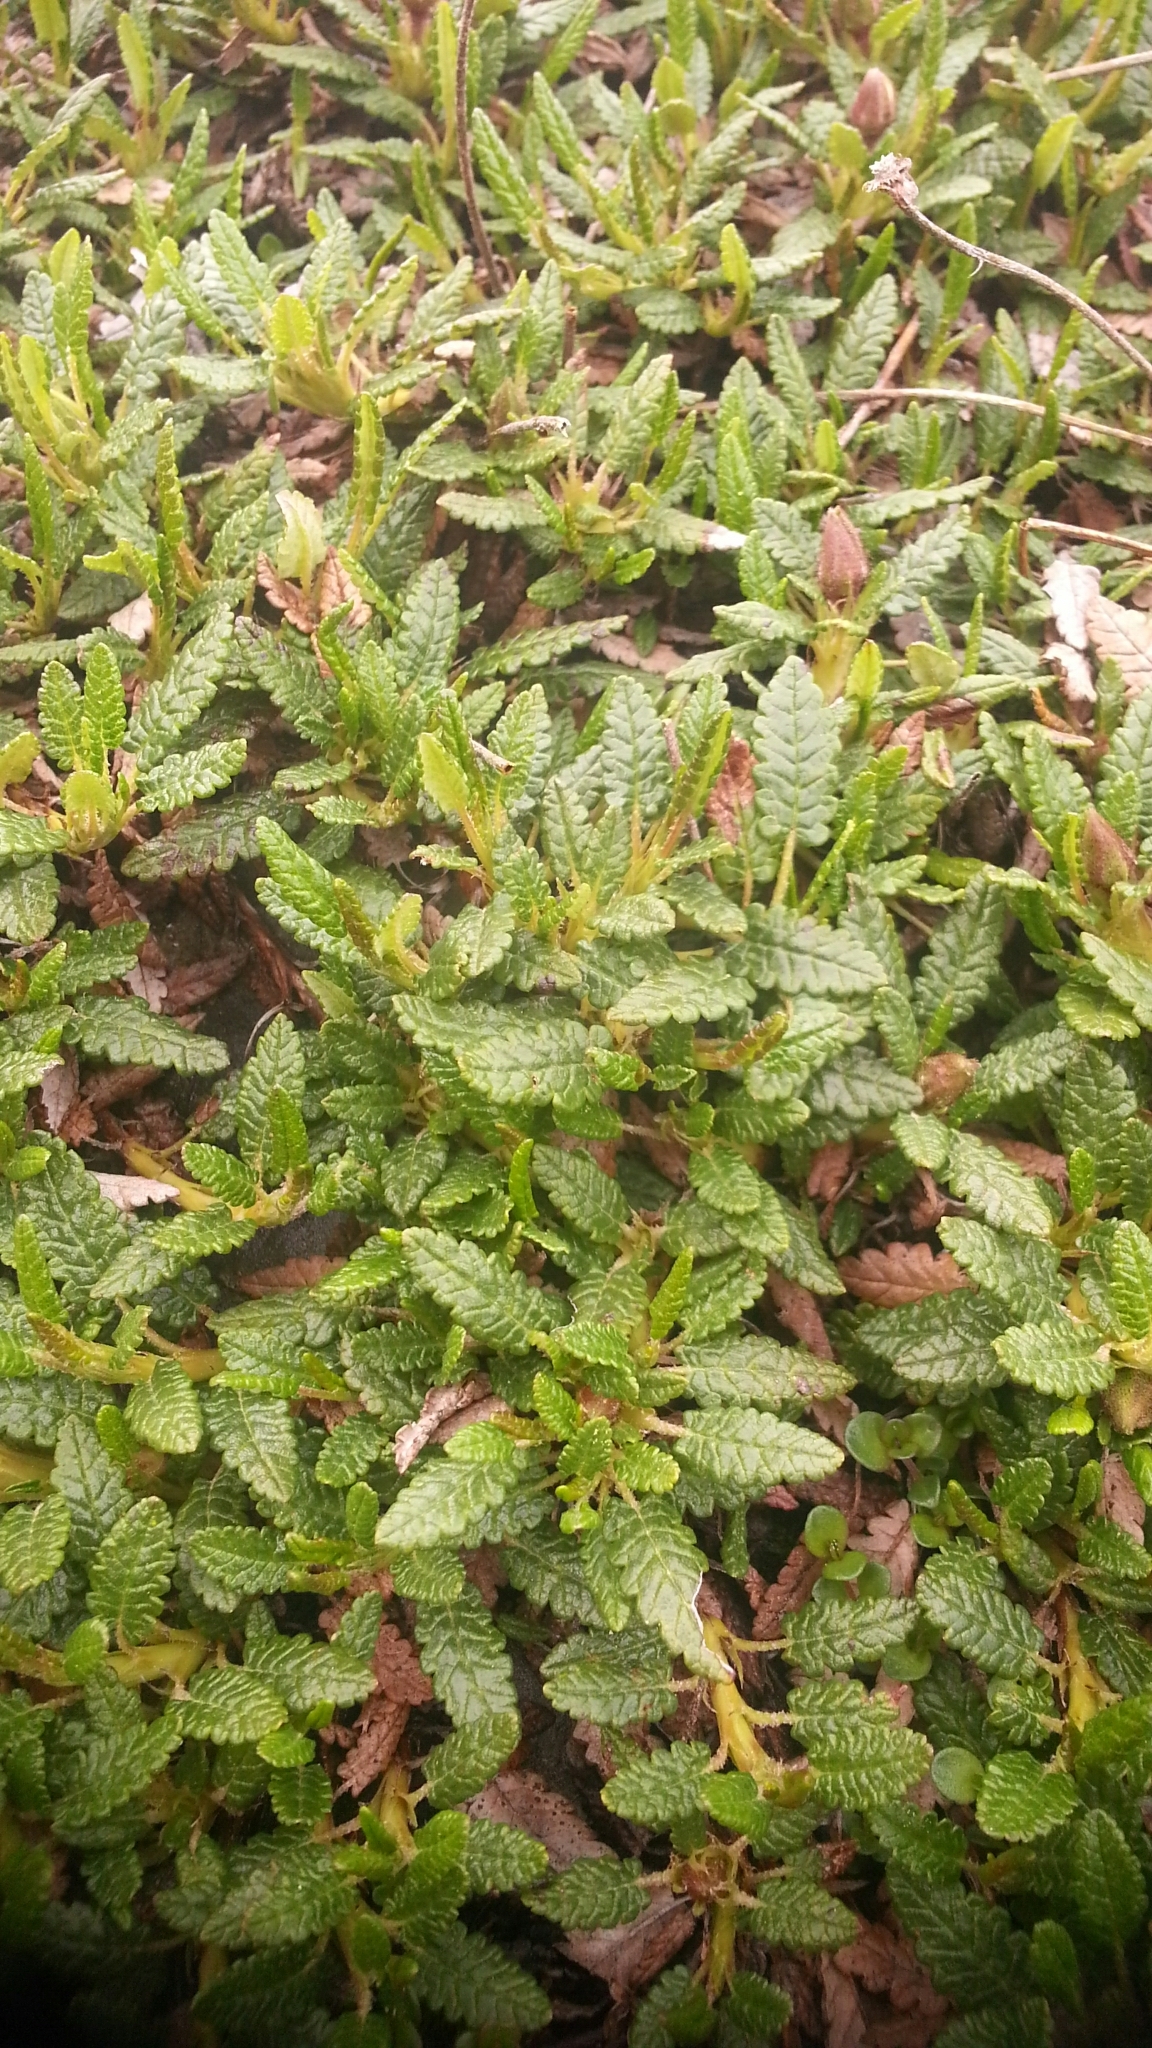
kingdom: Plantae
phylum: Tracheophyta
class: Magnoliopsida
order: Rosales
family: Rosaceae
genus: Dryas
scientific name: Dryas octopetala
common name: Eight-petal mountain-avens
